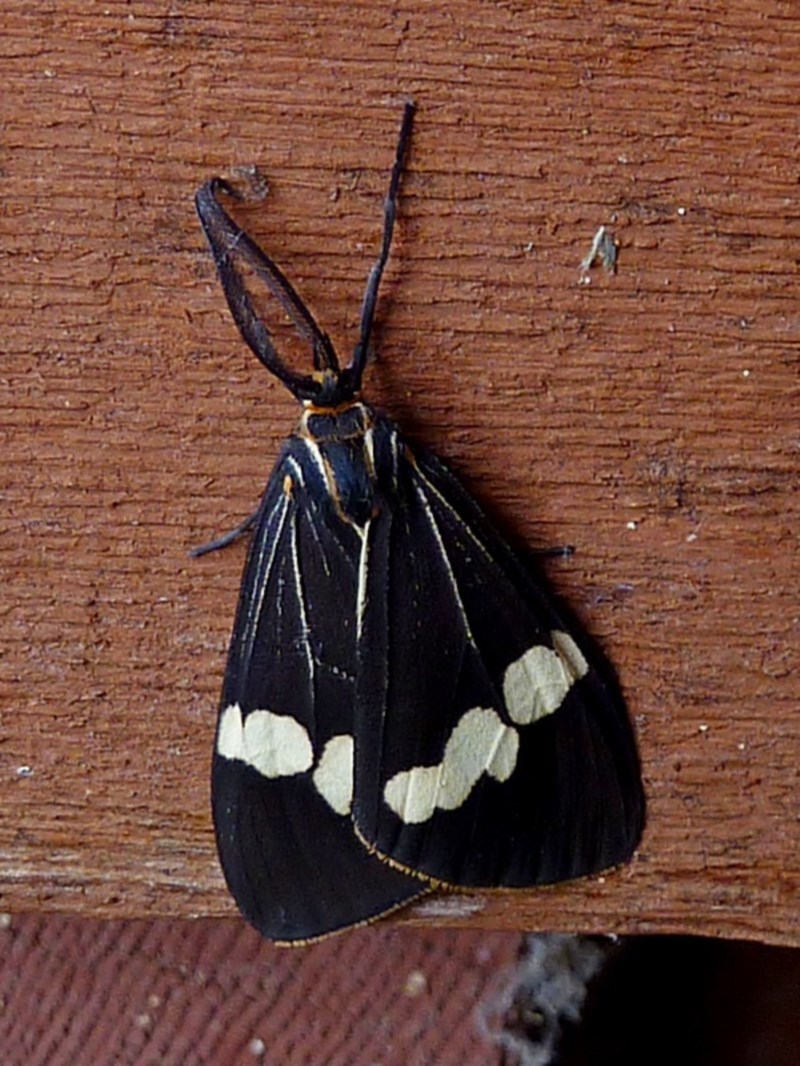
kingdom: Animalia
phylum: Arthropoda
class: Insecta
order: Lepidoptera
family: Erebidae
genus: Nyctemera
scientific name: Nyctemera amicus
